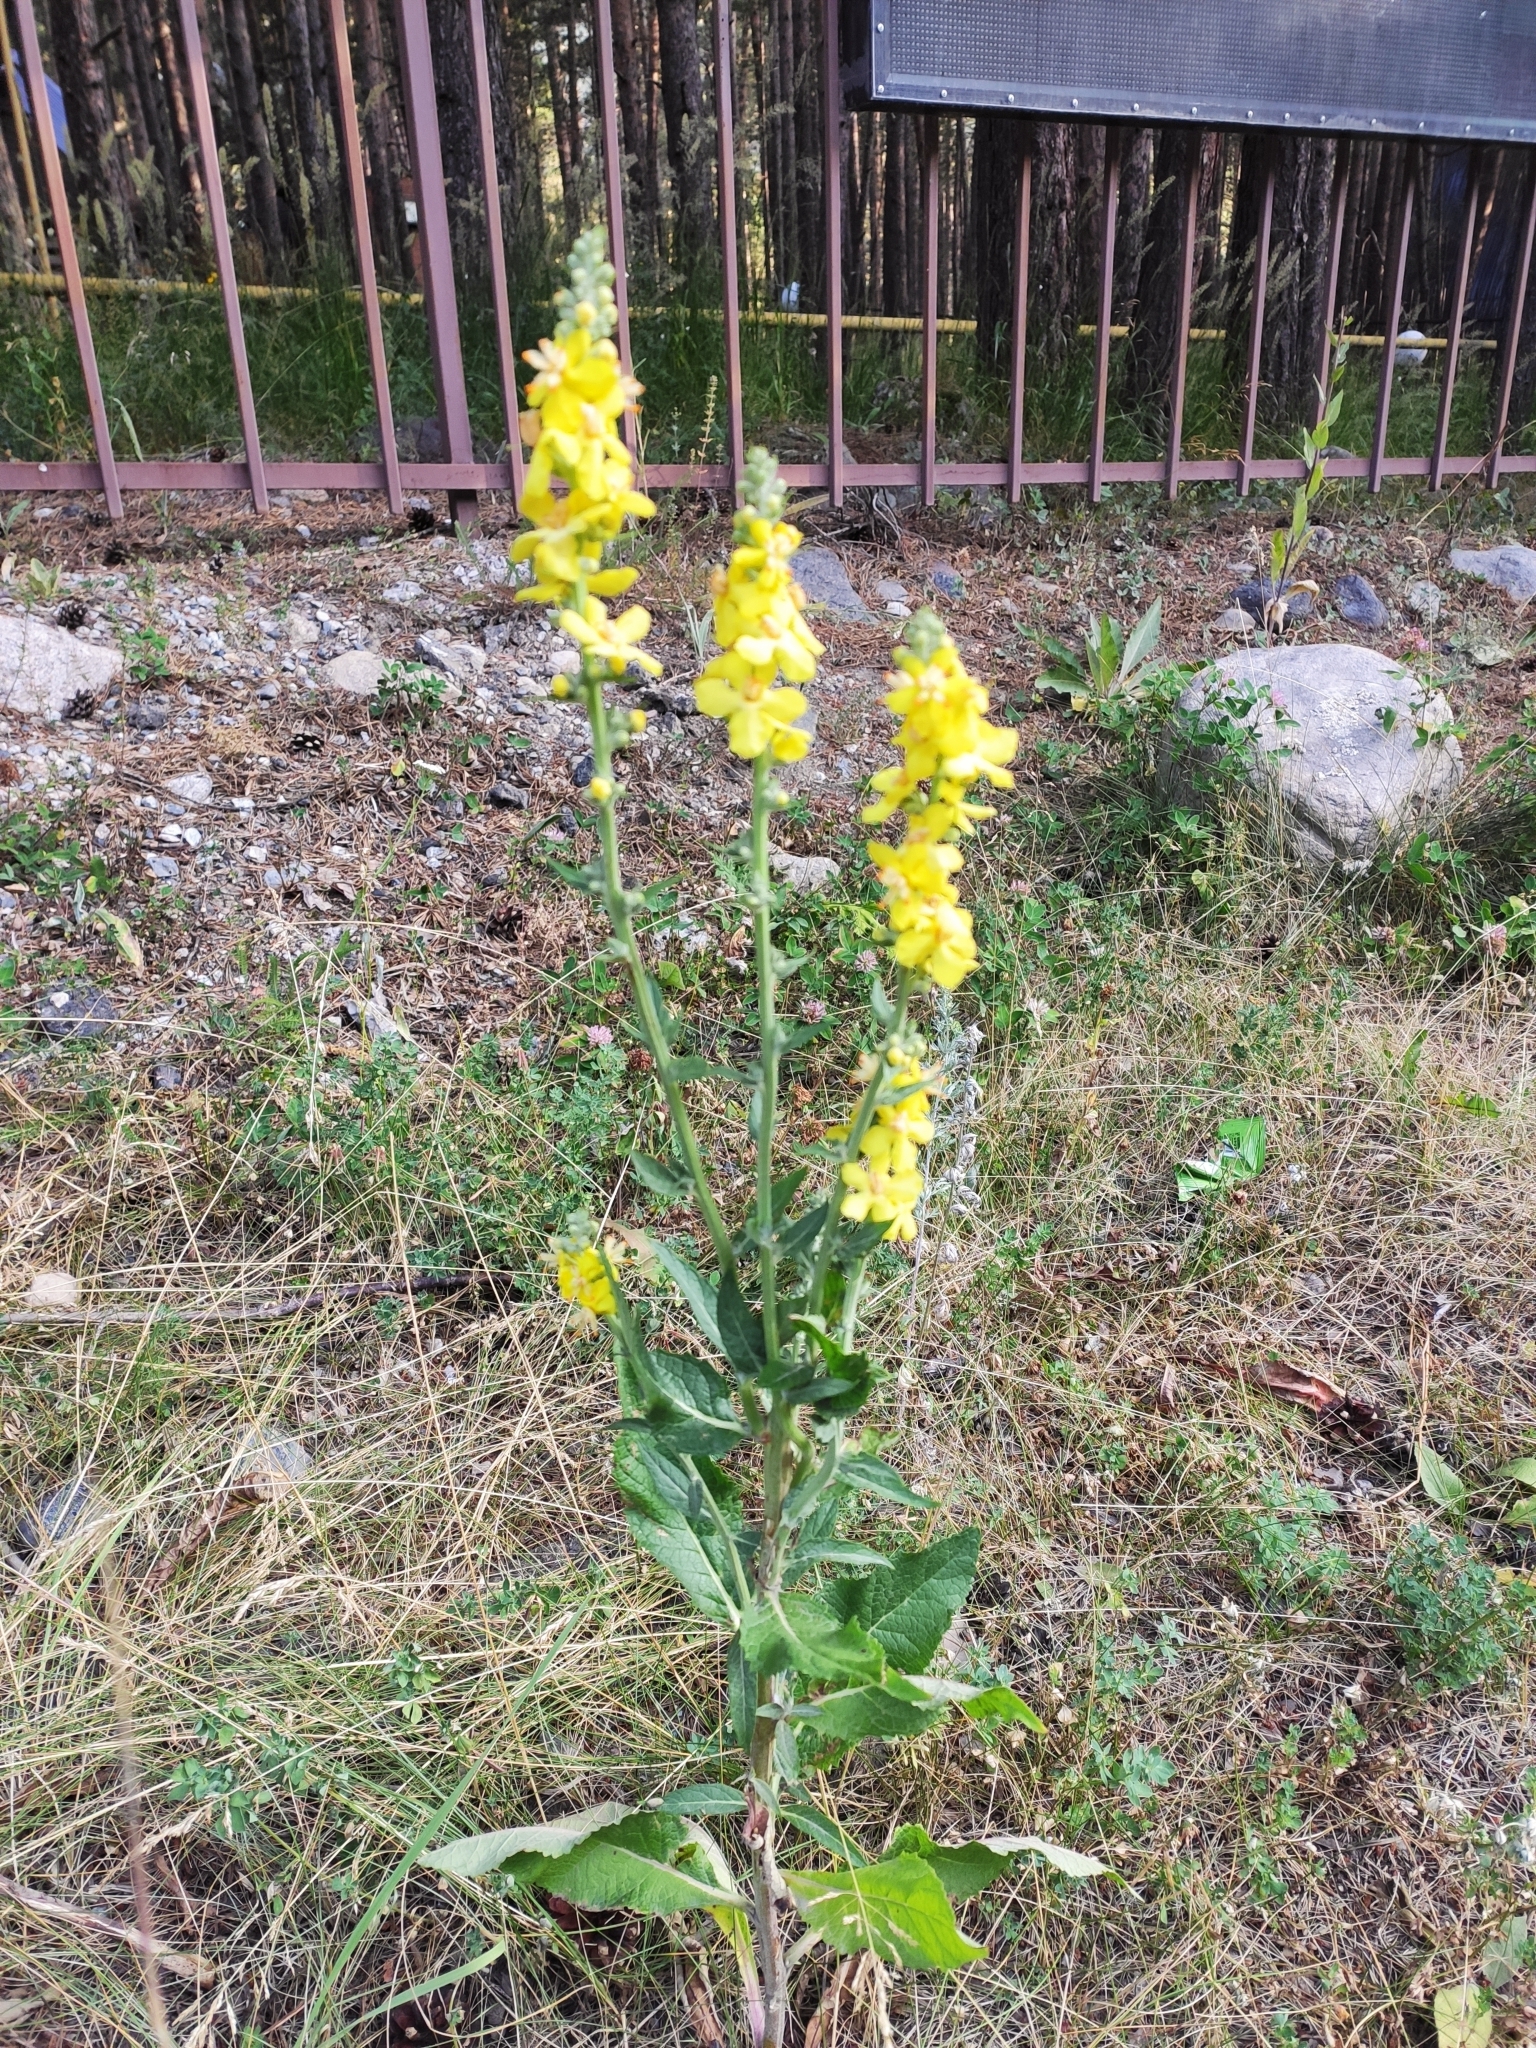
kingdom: Plantae
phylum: Tracheophyta
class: Magnoliopsida
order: Lamiales
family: Scrophulariaceae
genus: Verbascum
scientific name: Verbascum lychnitis
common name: White mullein
